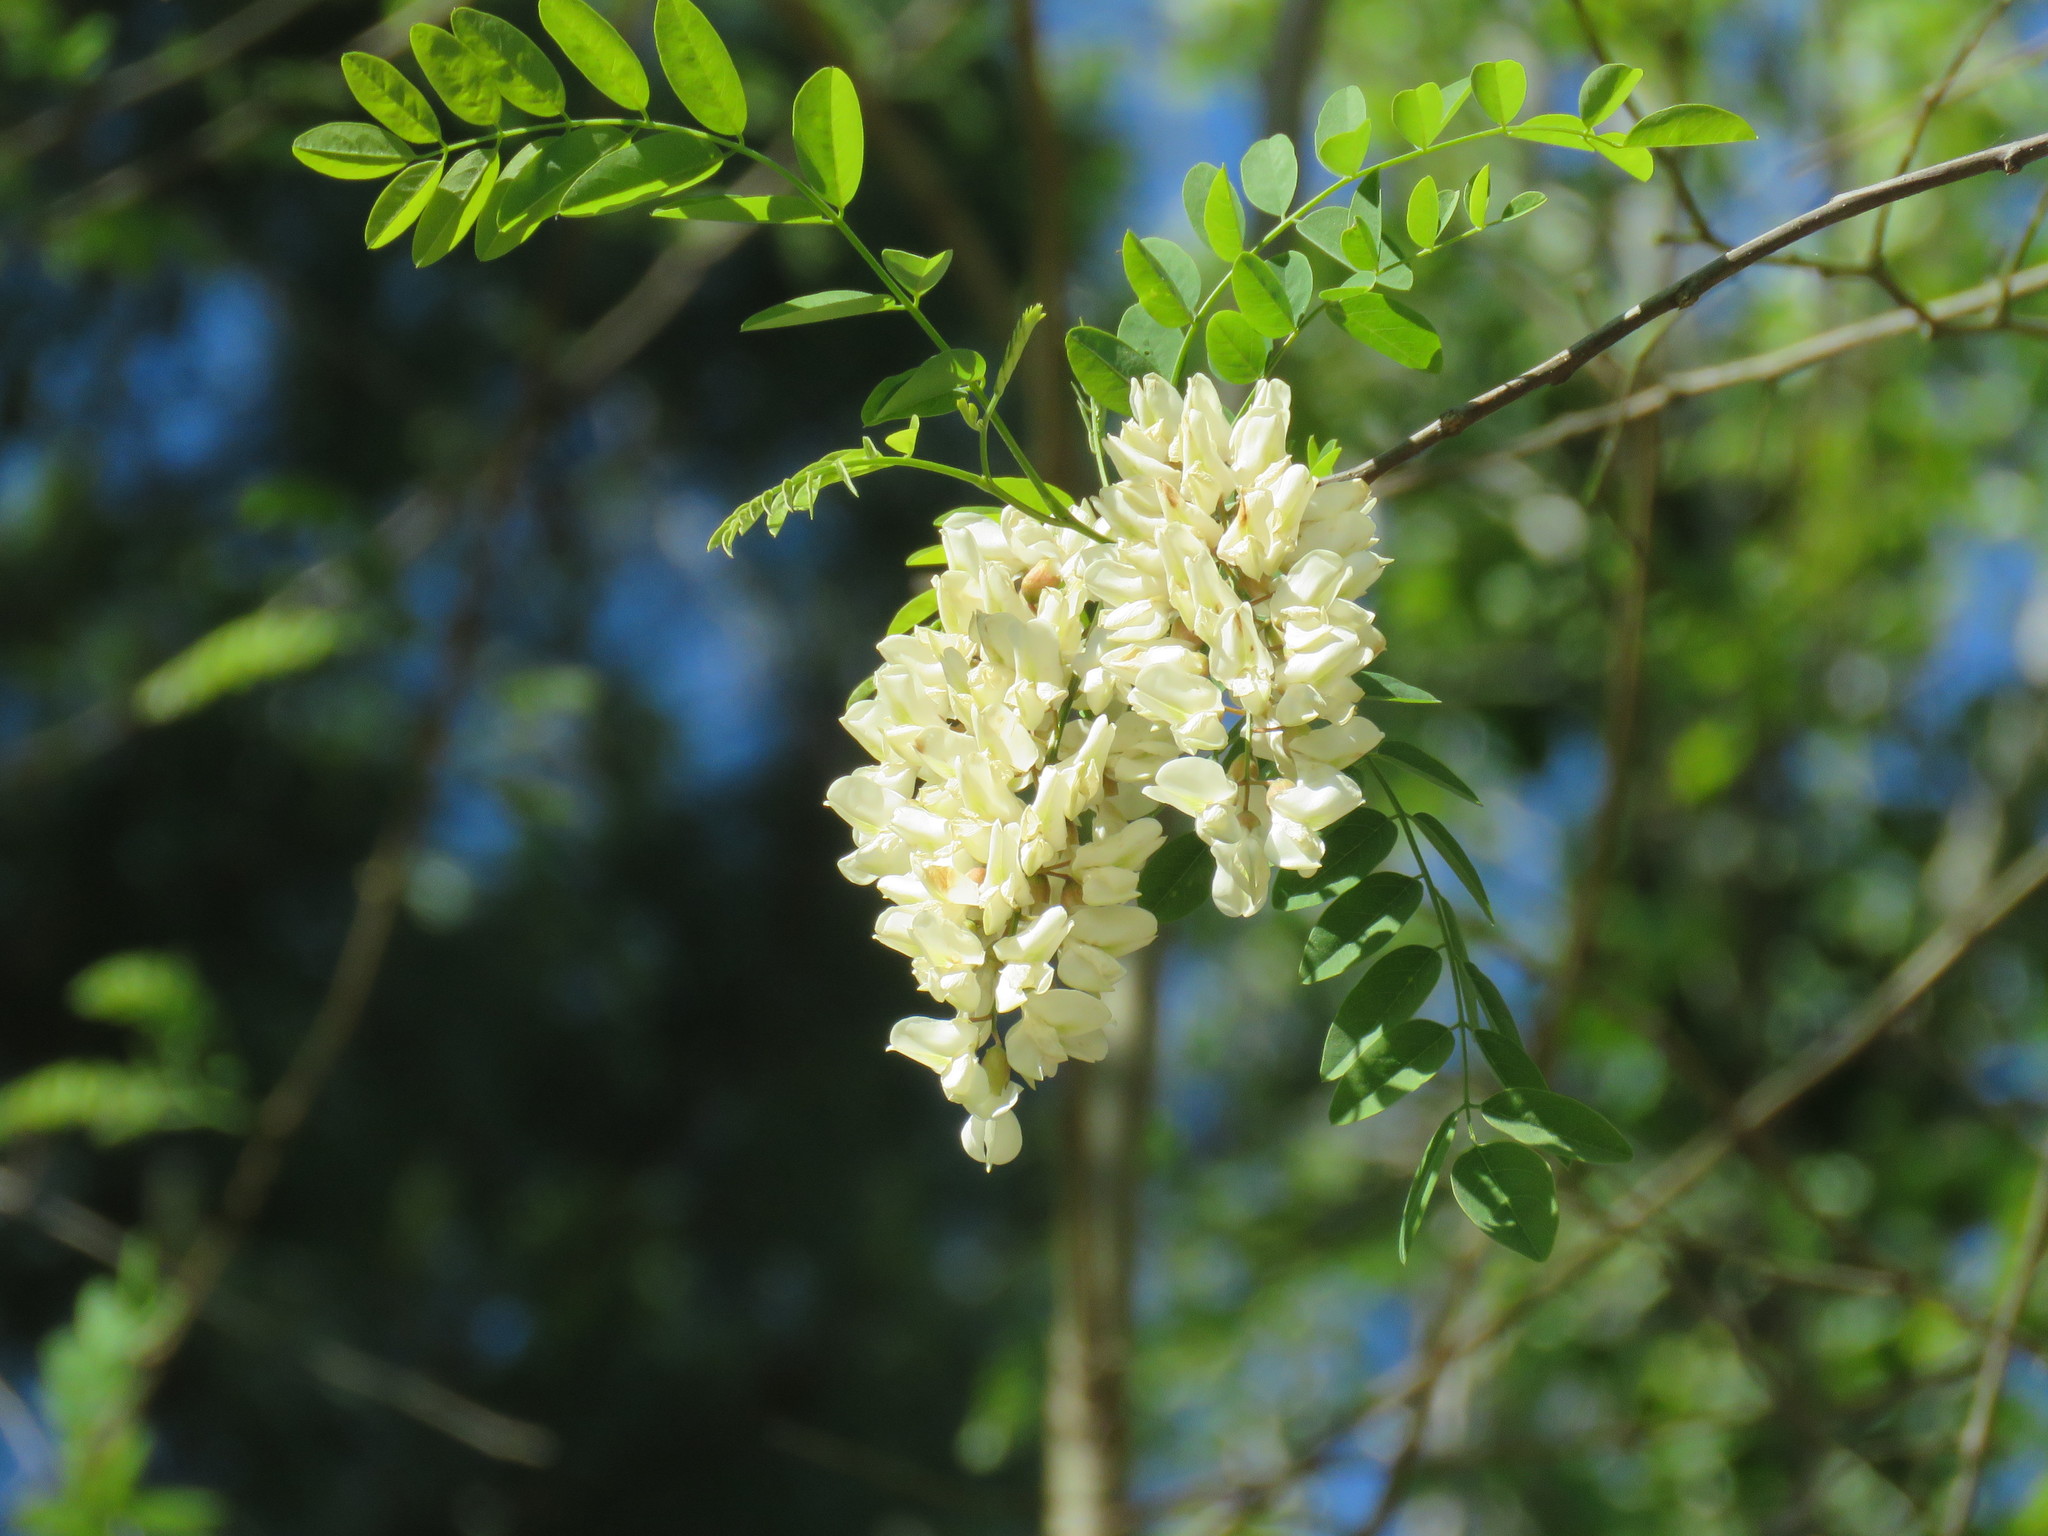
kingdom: Plantae
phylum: Tracheophyta
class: Magnoliopsida
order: Fabales
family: Fabaceae
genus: Robinia
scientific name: Robinia pseudoacacia
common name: Black locust
